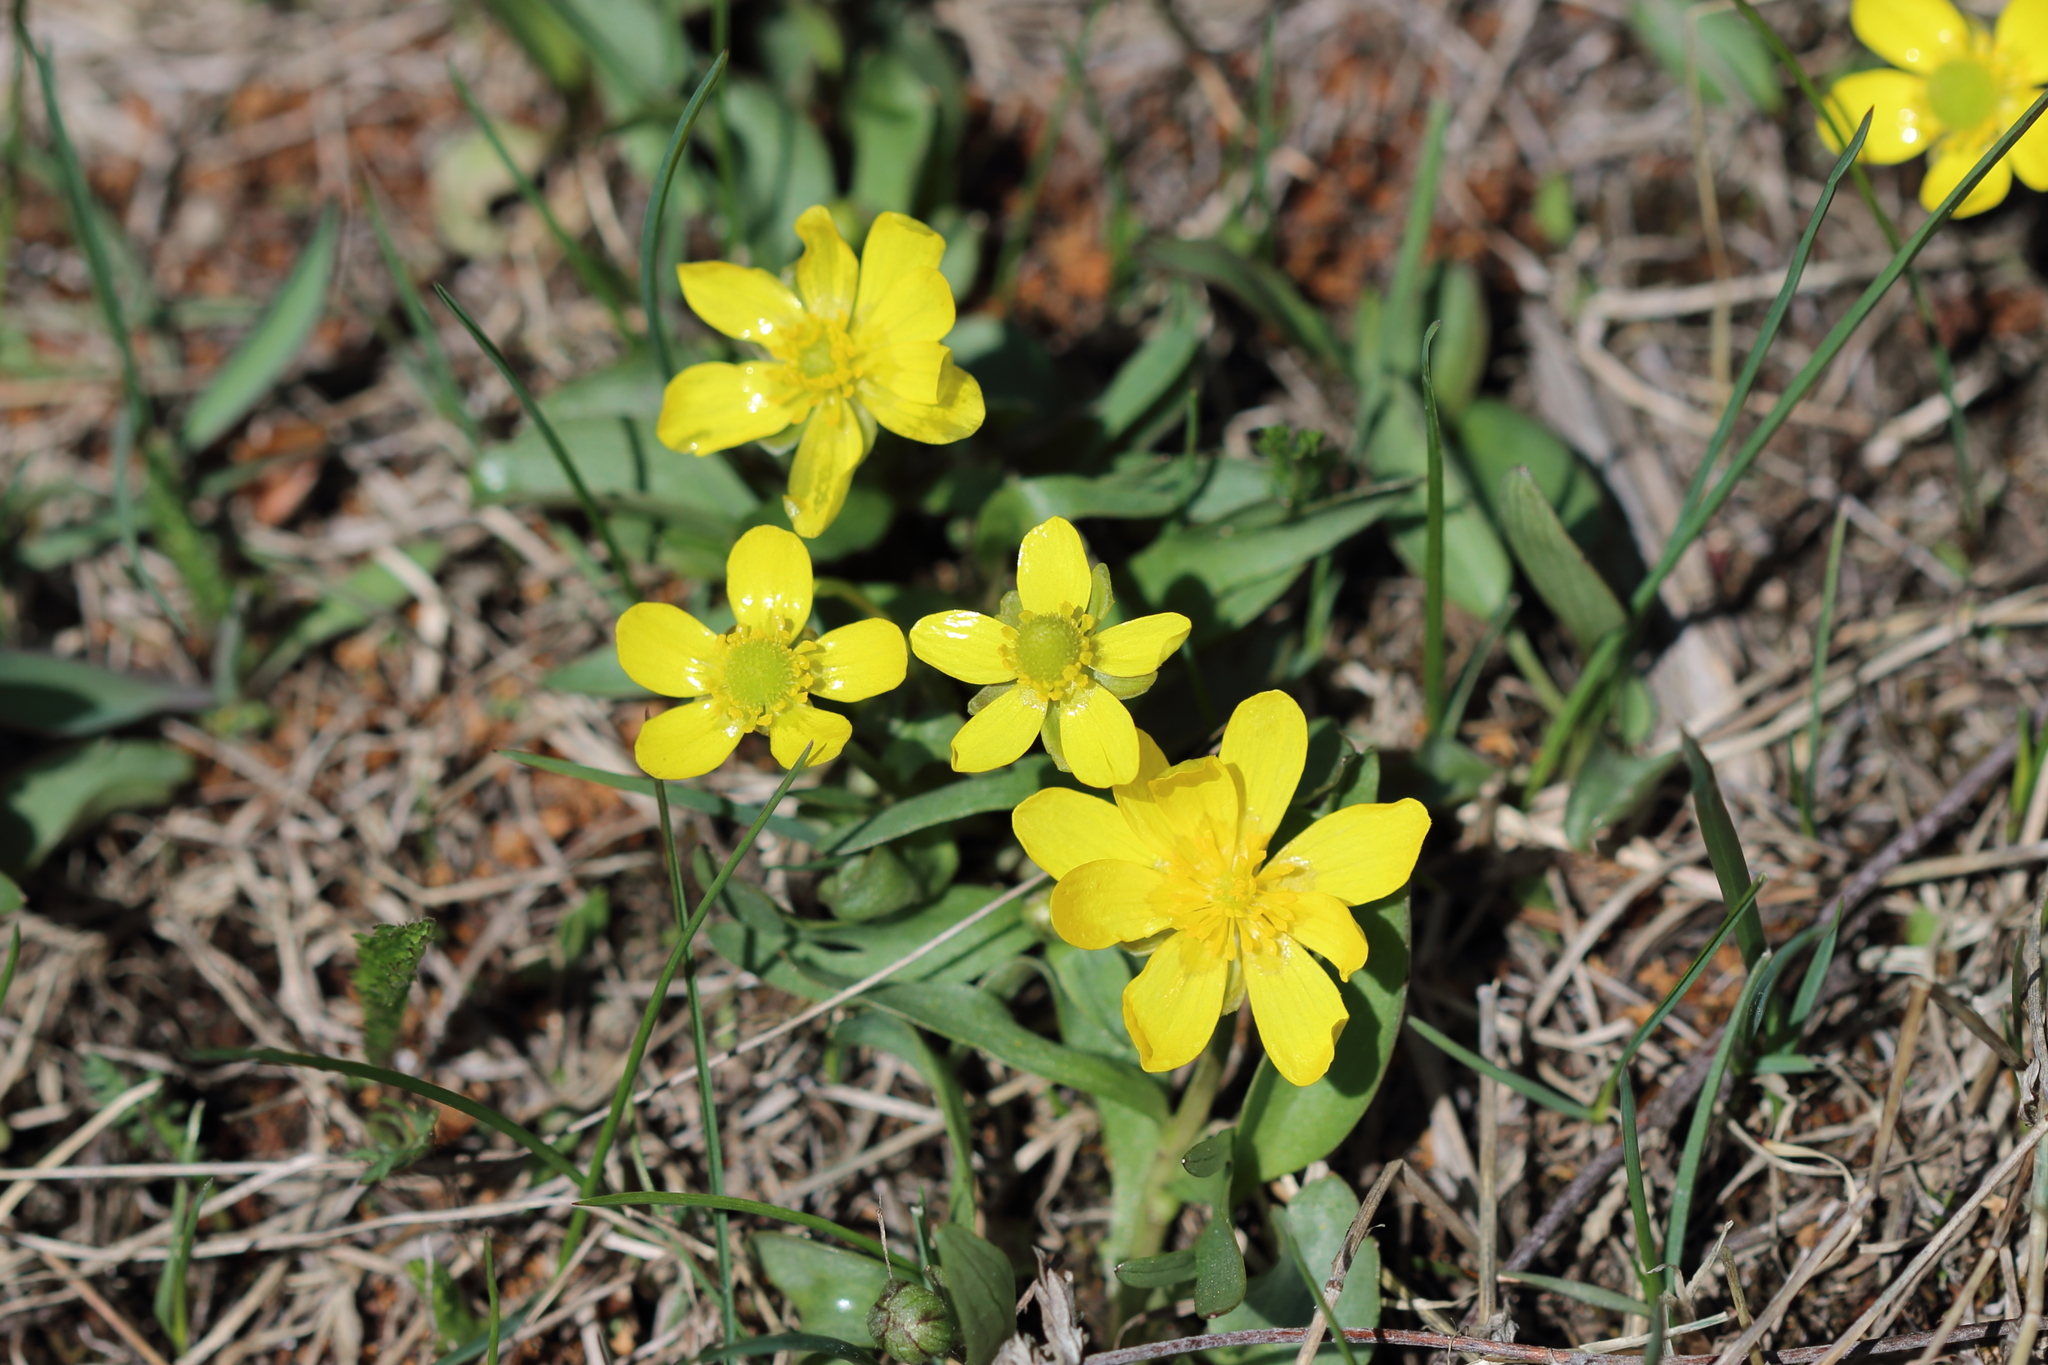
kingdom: Plantae
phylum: Tracheophyta
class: Magnoliopsida
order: Ranunculales
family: Ranunculaceae
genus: Ranunculus
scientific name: Ranunculus glaberrimus
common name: Sagebrush buttercup
